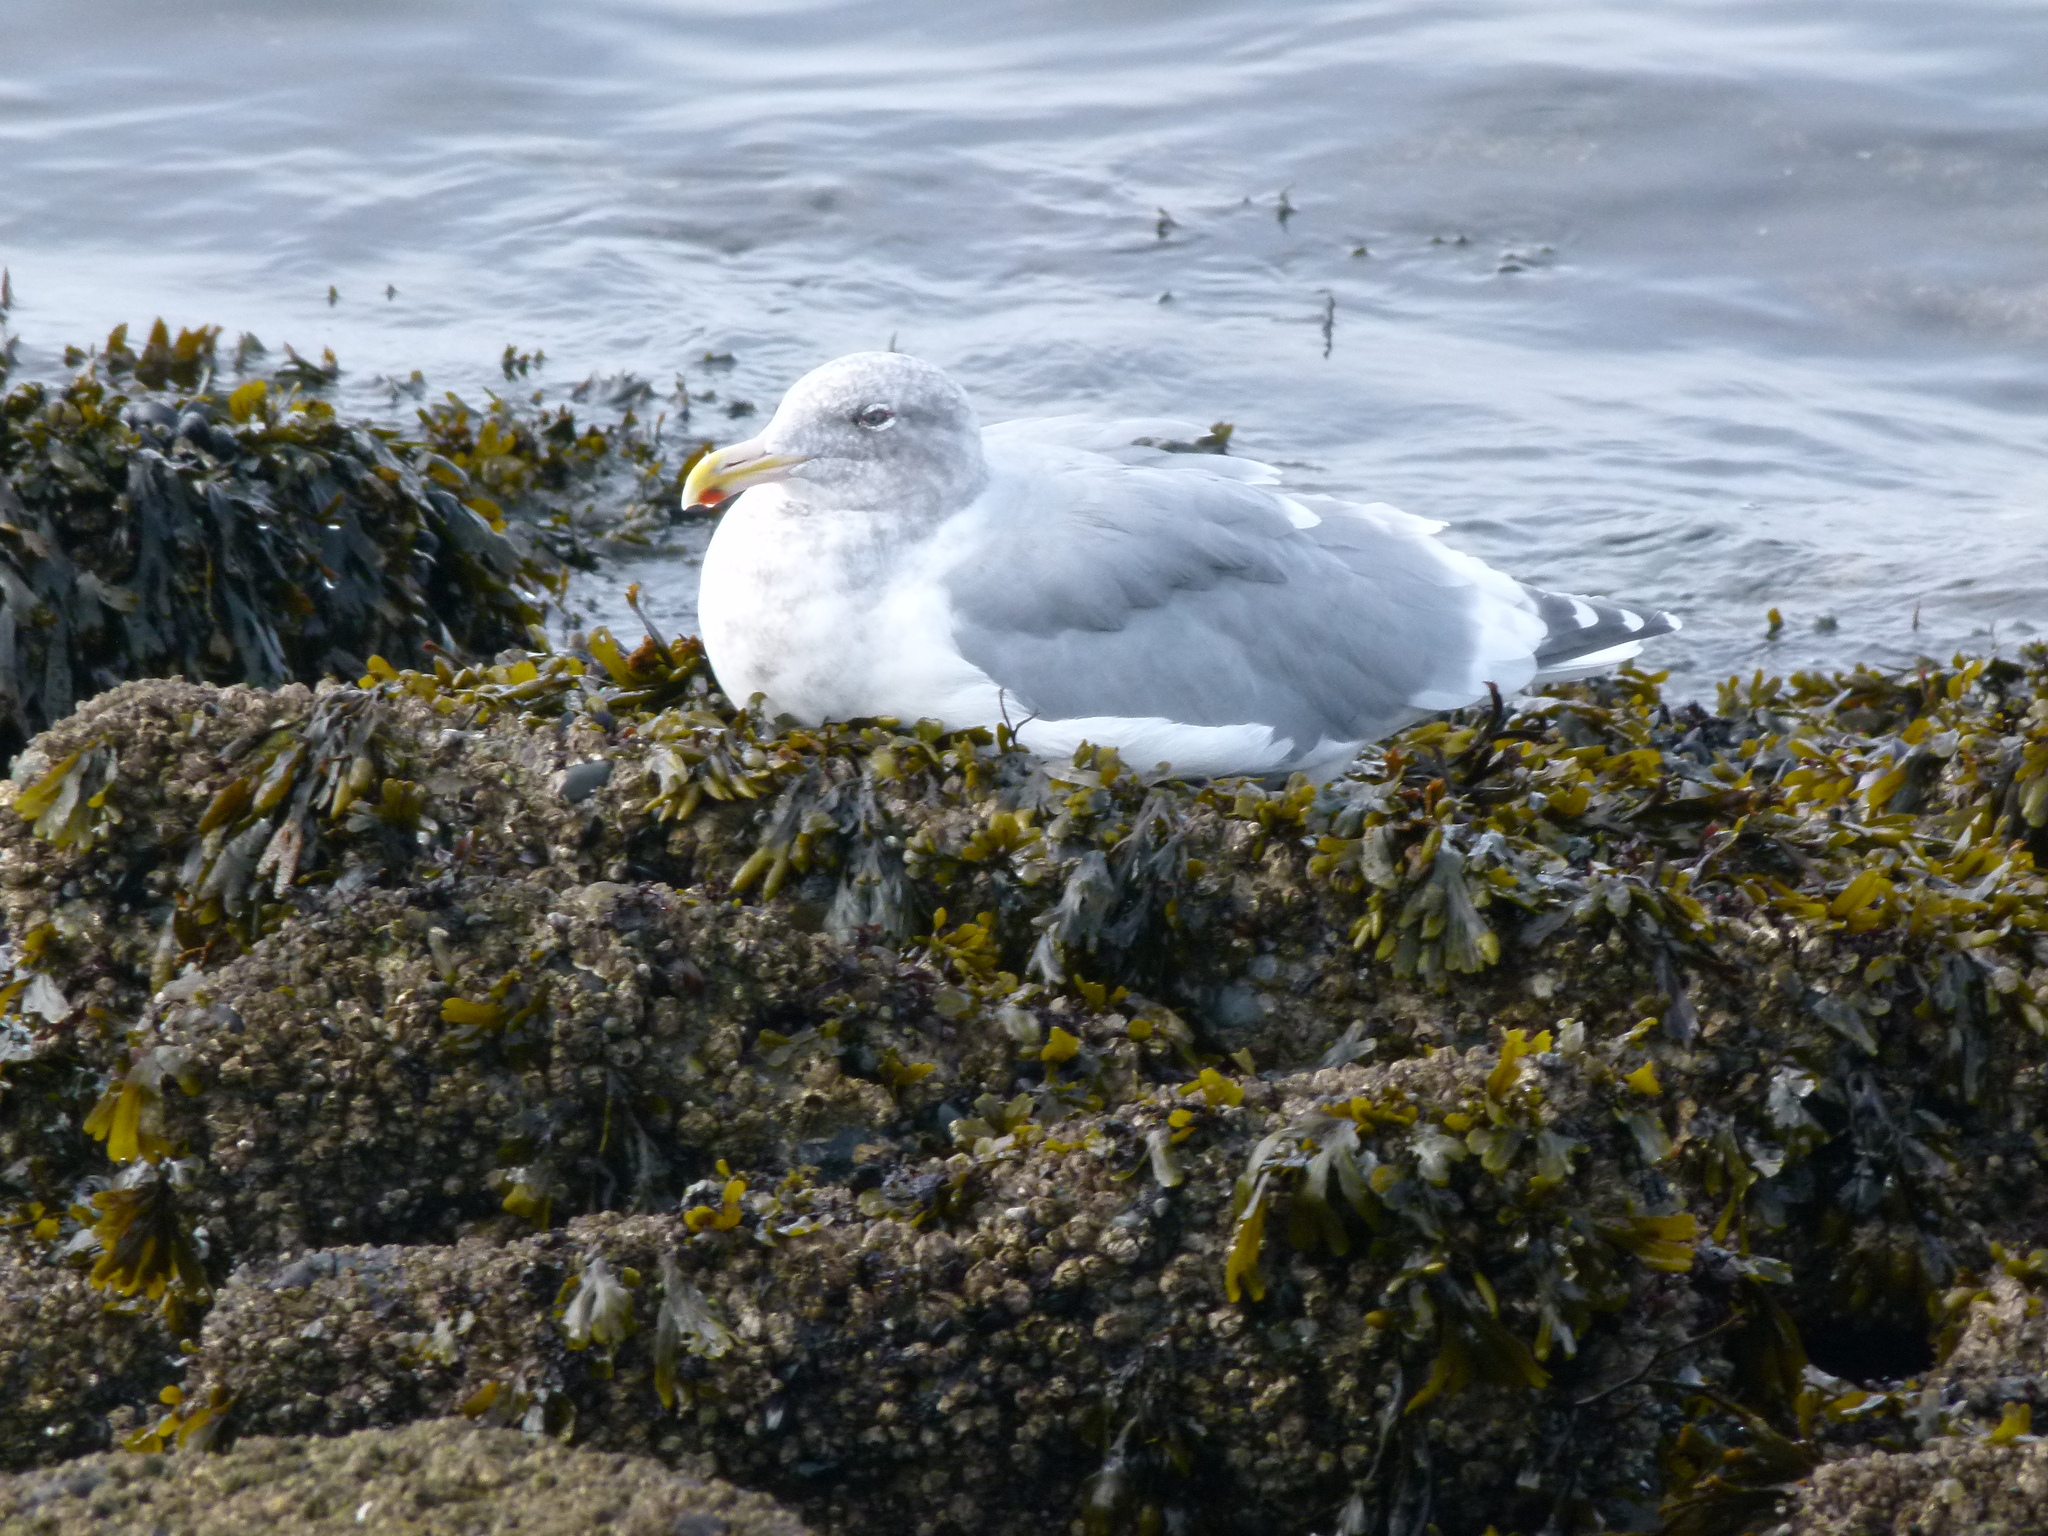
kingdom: Animalia
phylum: Chordata
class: Aves
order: Charadriiformes
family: Laridae
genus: Larus
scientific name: Larus
